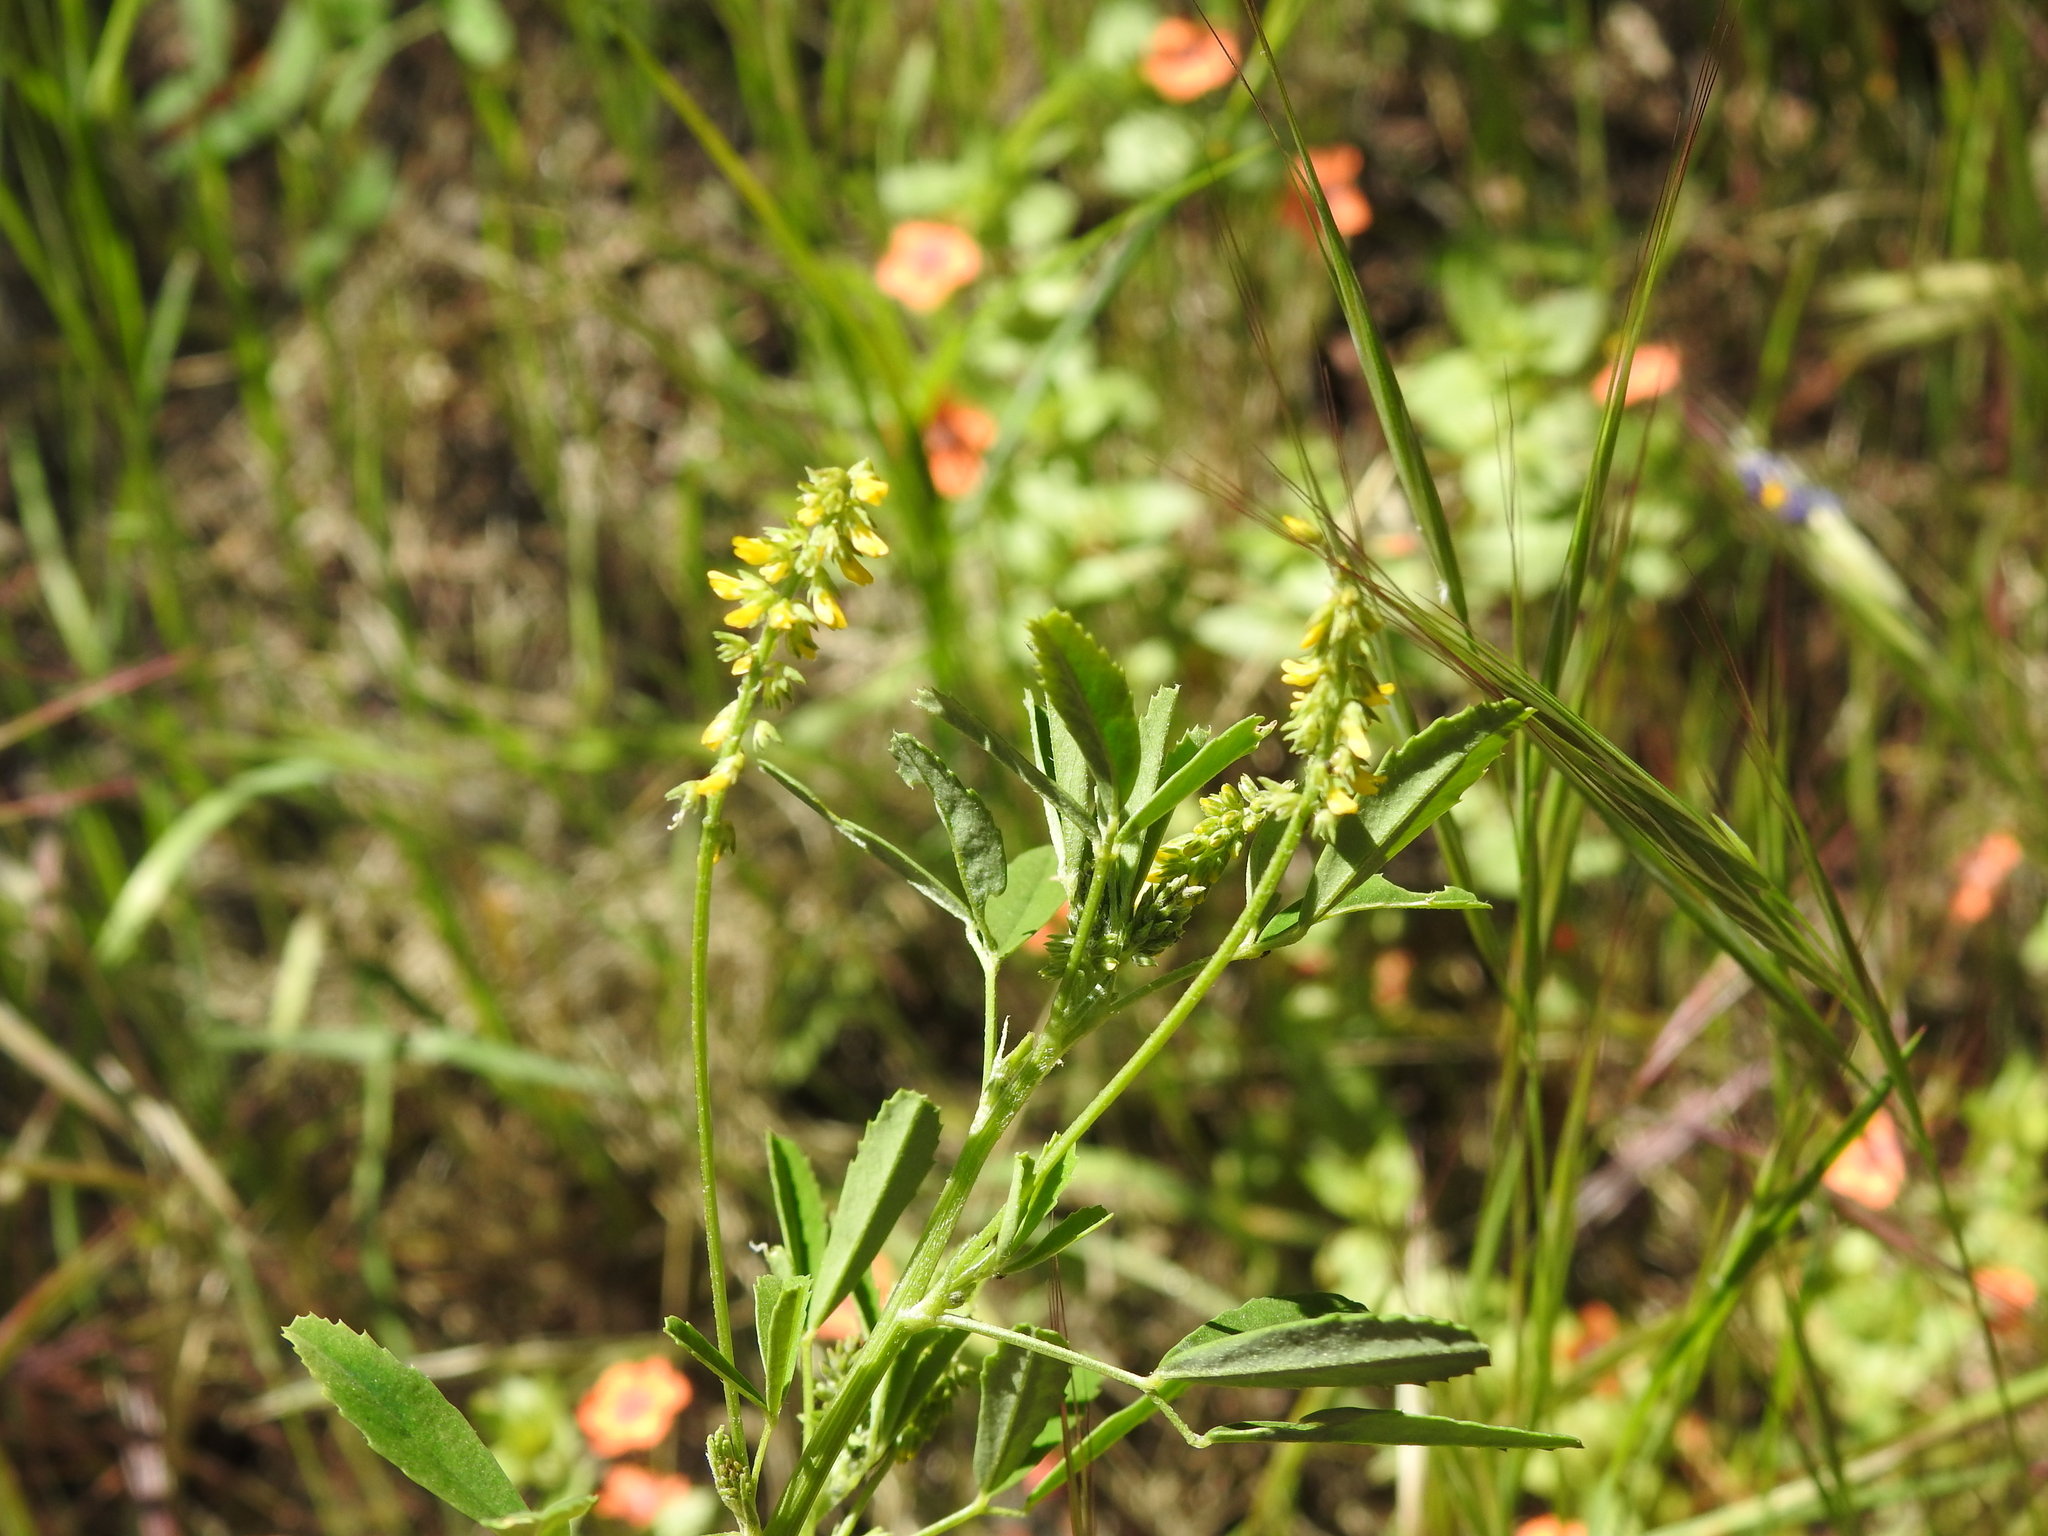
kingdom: Plantae
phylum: Tracheophyta
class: Magnoliopsida
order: Fabales
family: Fabaceae
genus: Melilotus
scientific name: Melilotus indicus
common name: Small melilot
